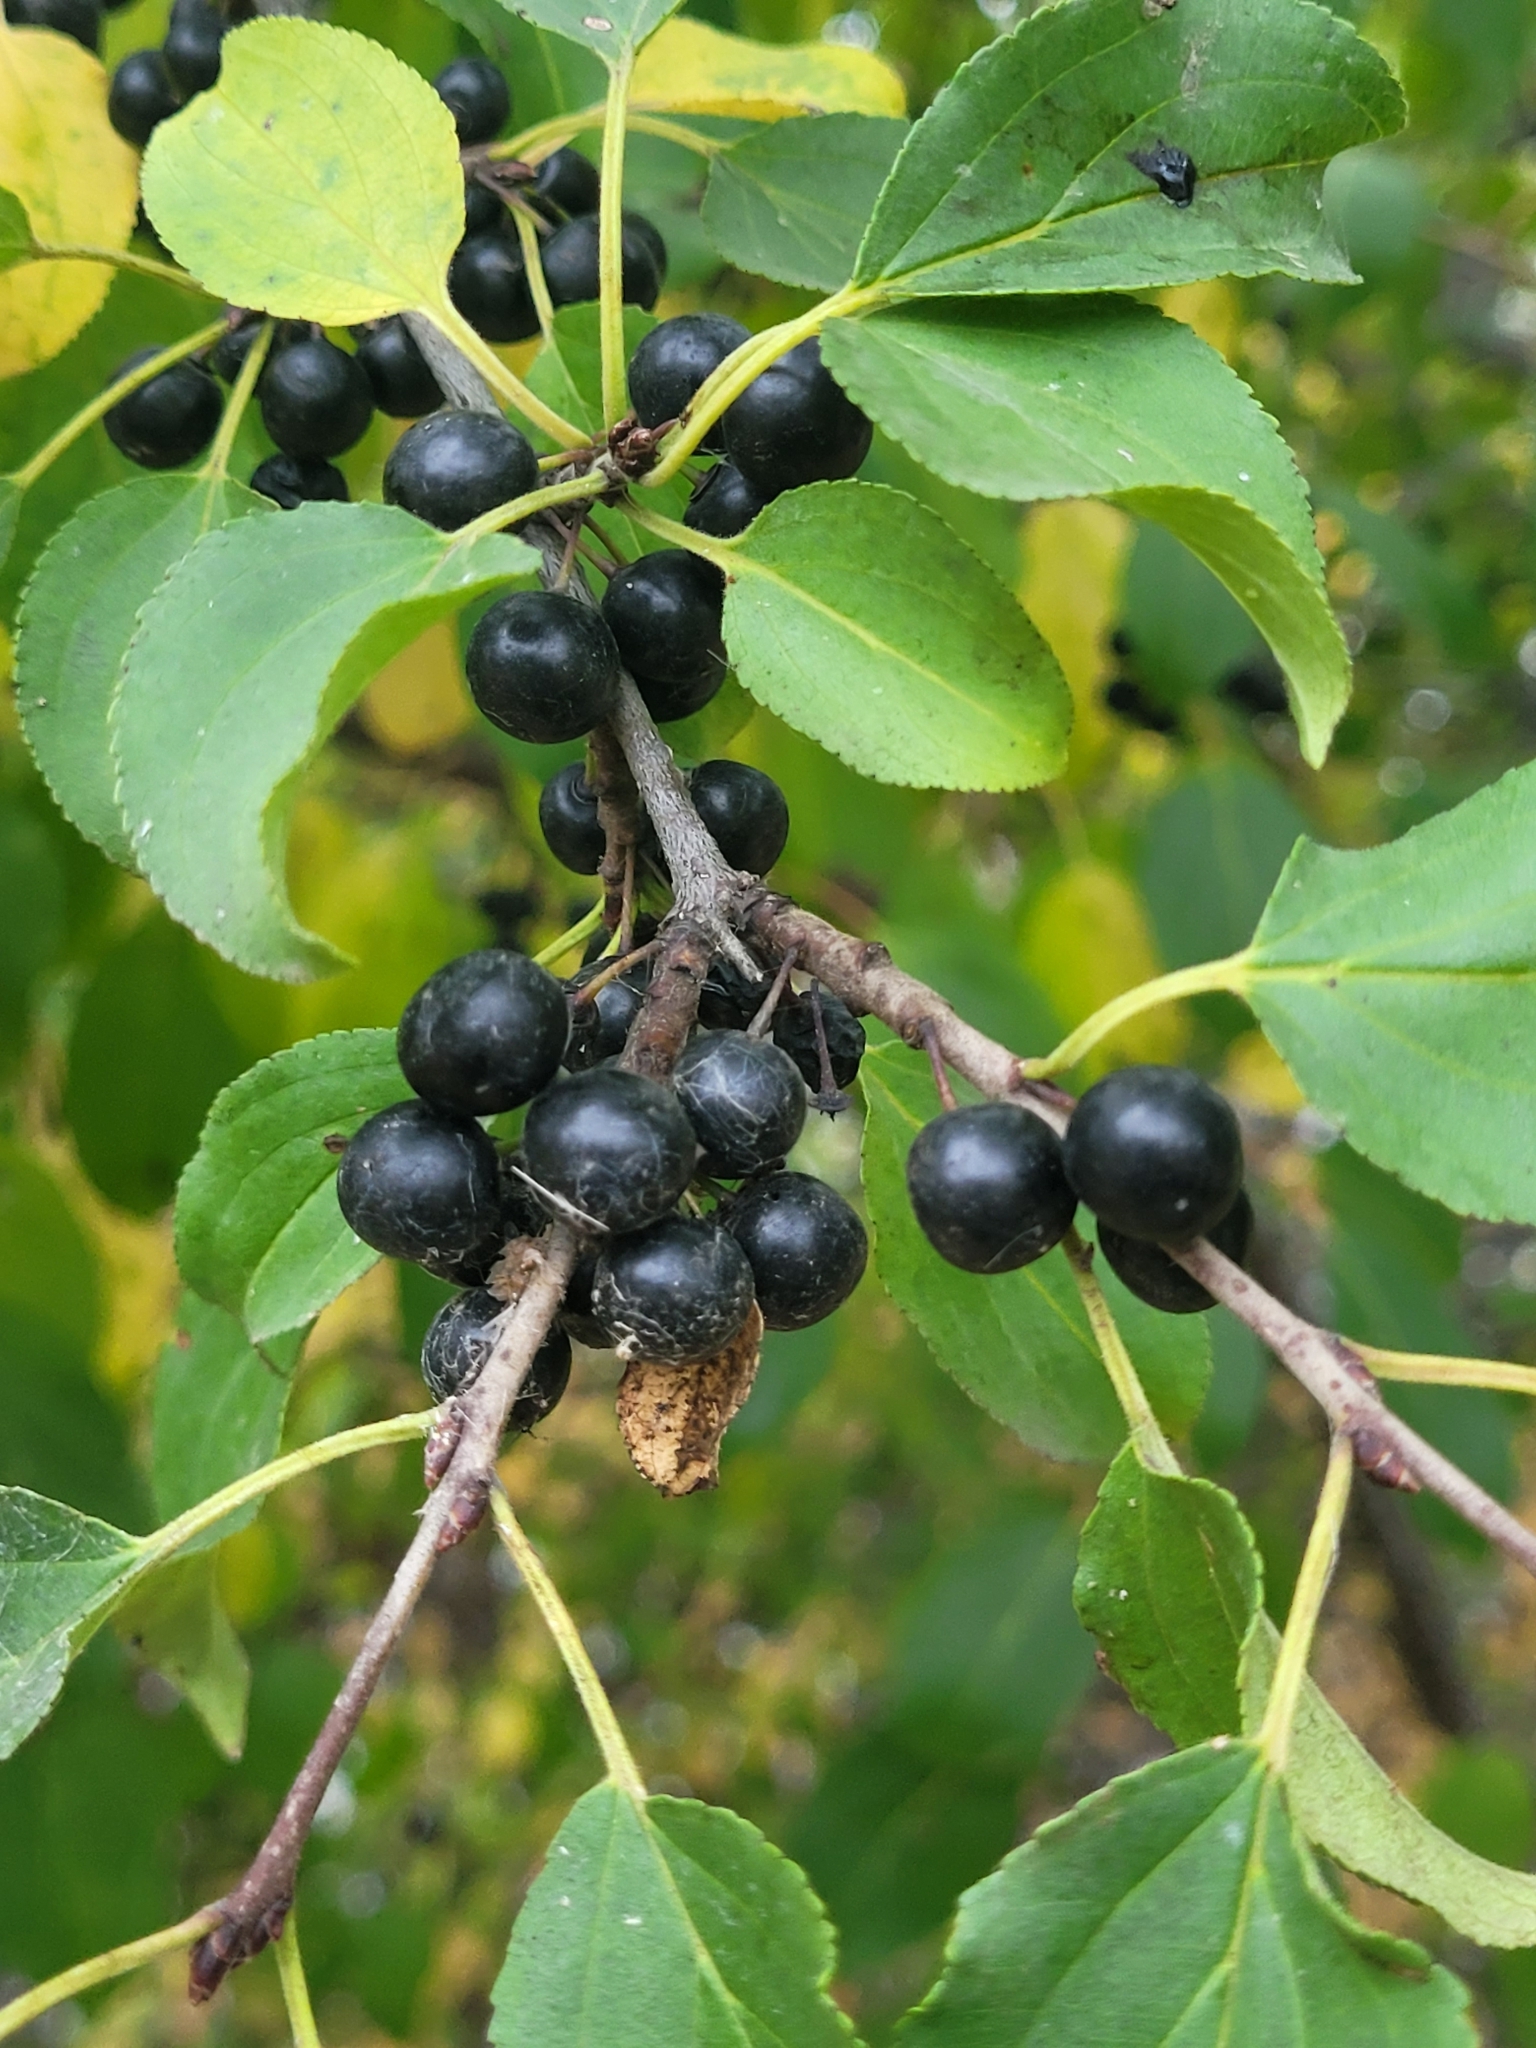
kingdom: Plantae
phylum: Tracheophyta
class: Magnoliopsida
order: Rosales
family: Rhamnaceae
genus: Rhamnus
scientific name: Rhamnus cathartica
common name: Common buckthorn
